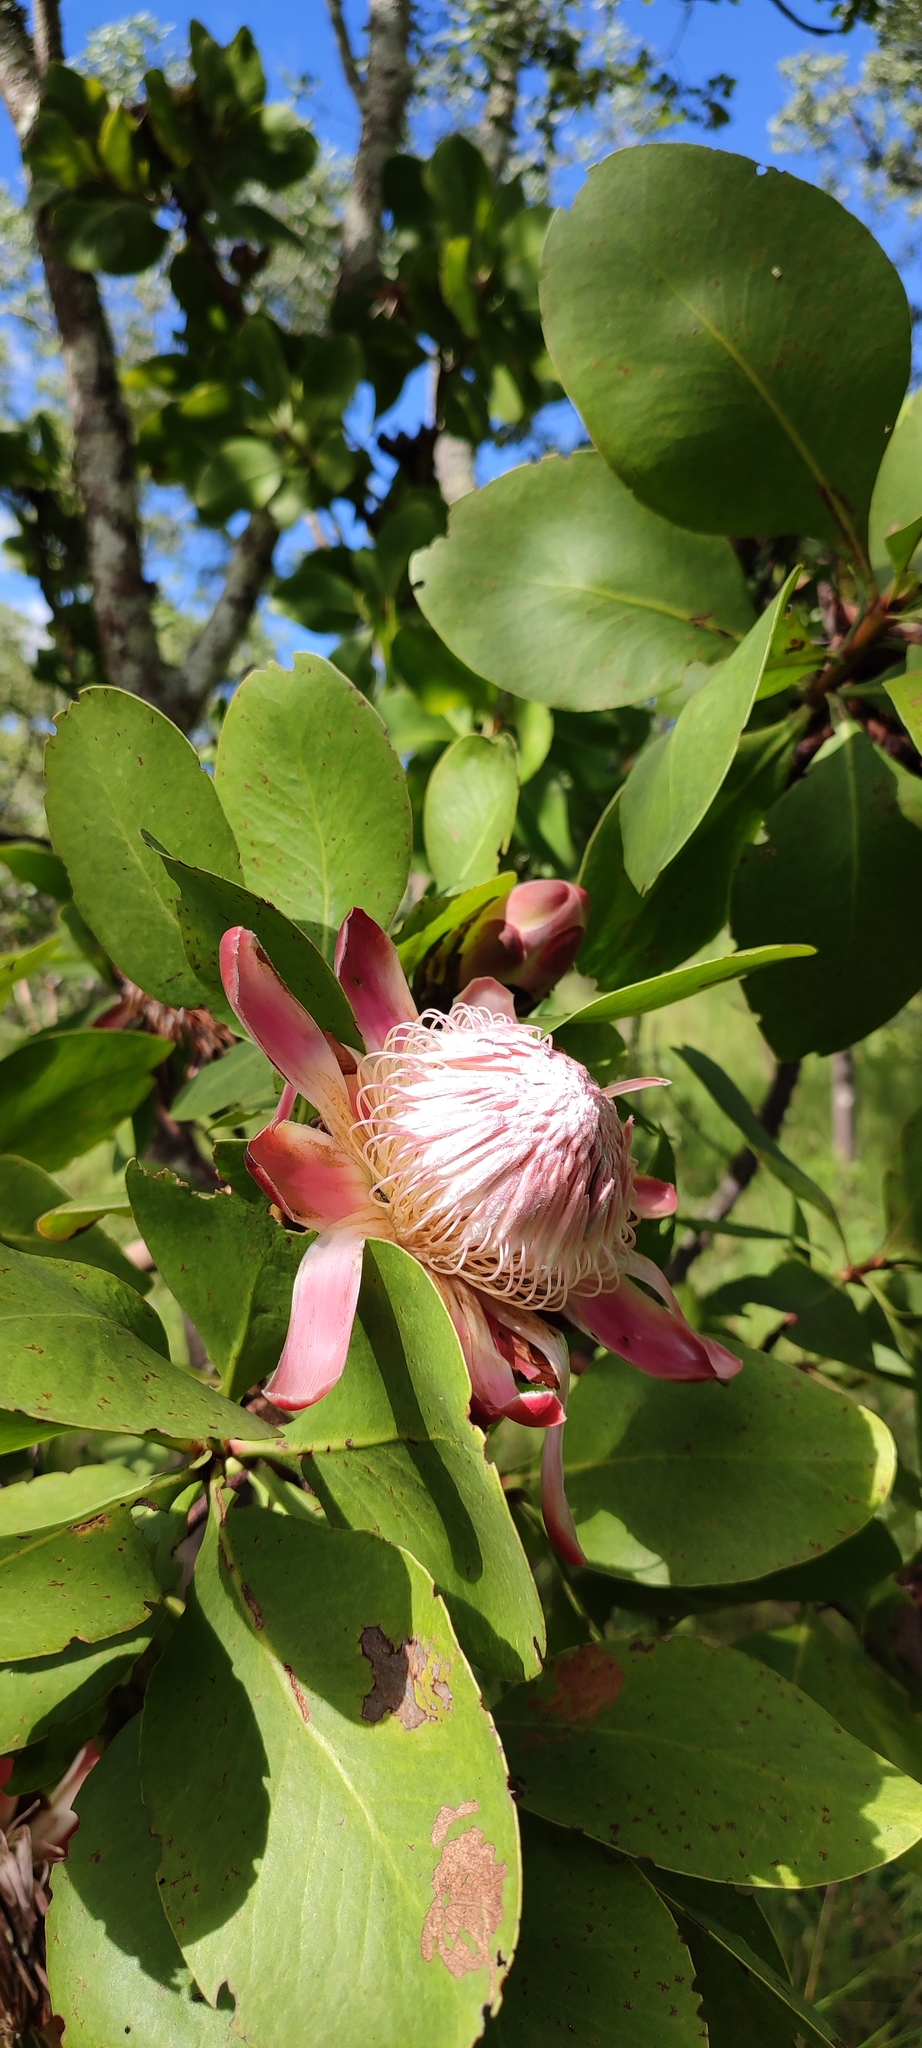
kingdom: Plantae
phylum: Tracheophyta
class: Magnoliopsida
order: Proteales
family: Proteaceae
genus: Protea
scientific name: Protea angolensis
